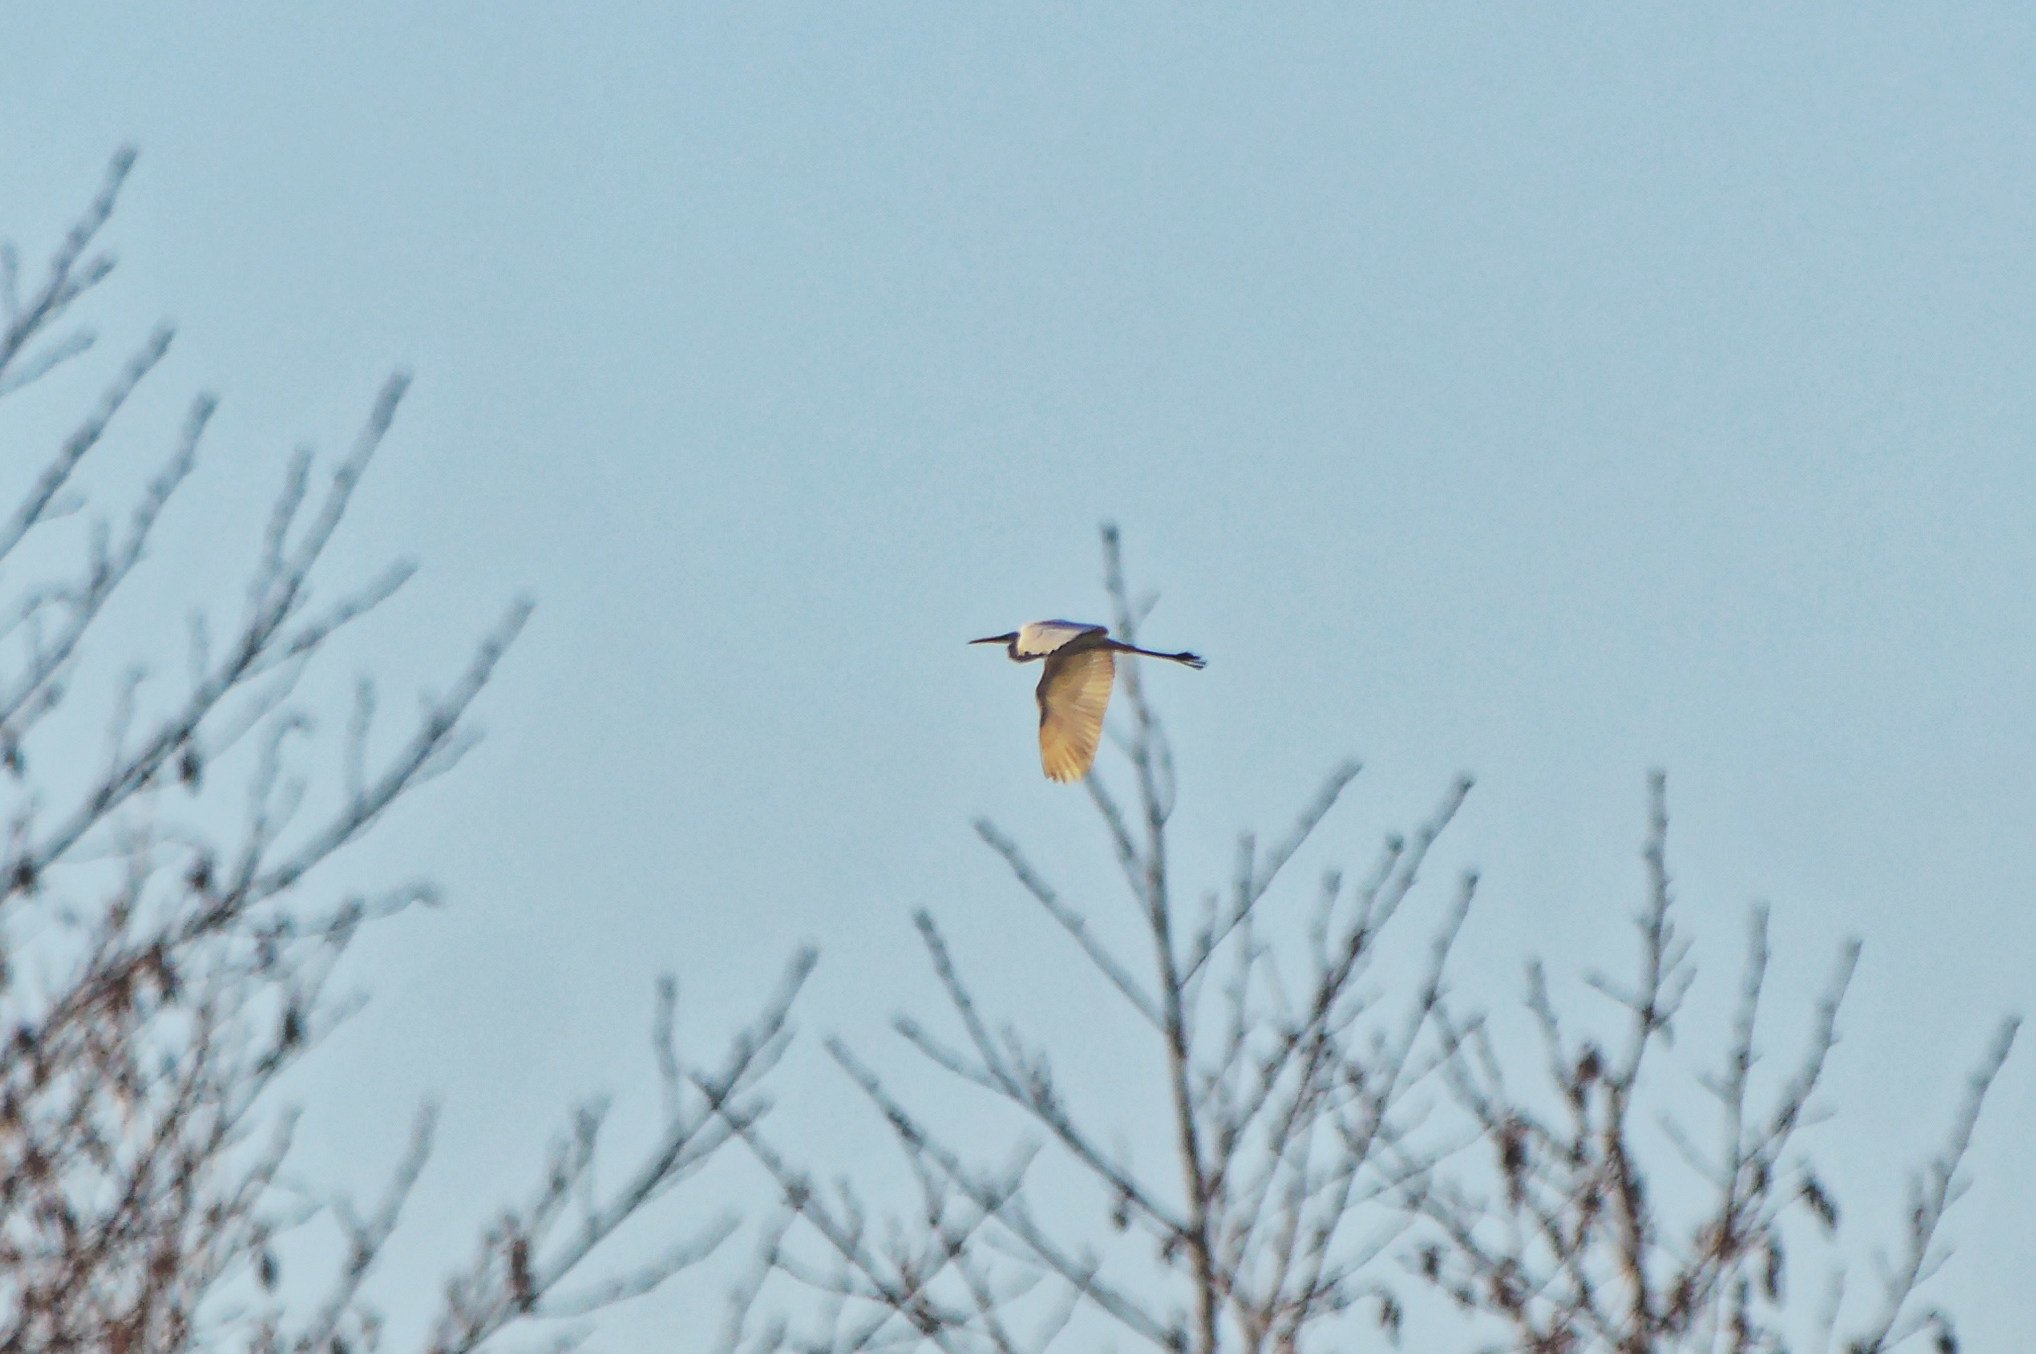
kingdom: Animalia
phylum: Chordata
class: Aves
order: Pelecaniformes
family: Ardeidae
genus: Ardea
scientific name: Ardea alba
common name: Great egret
